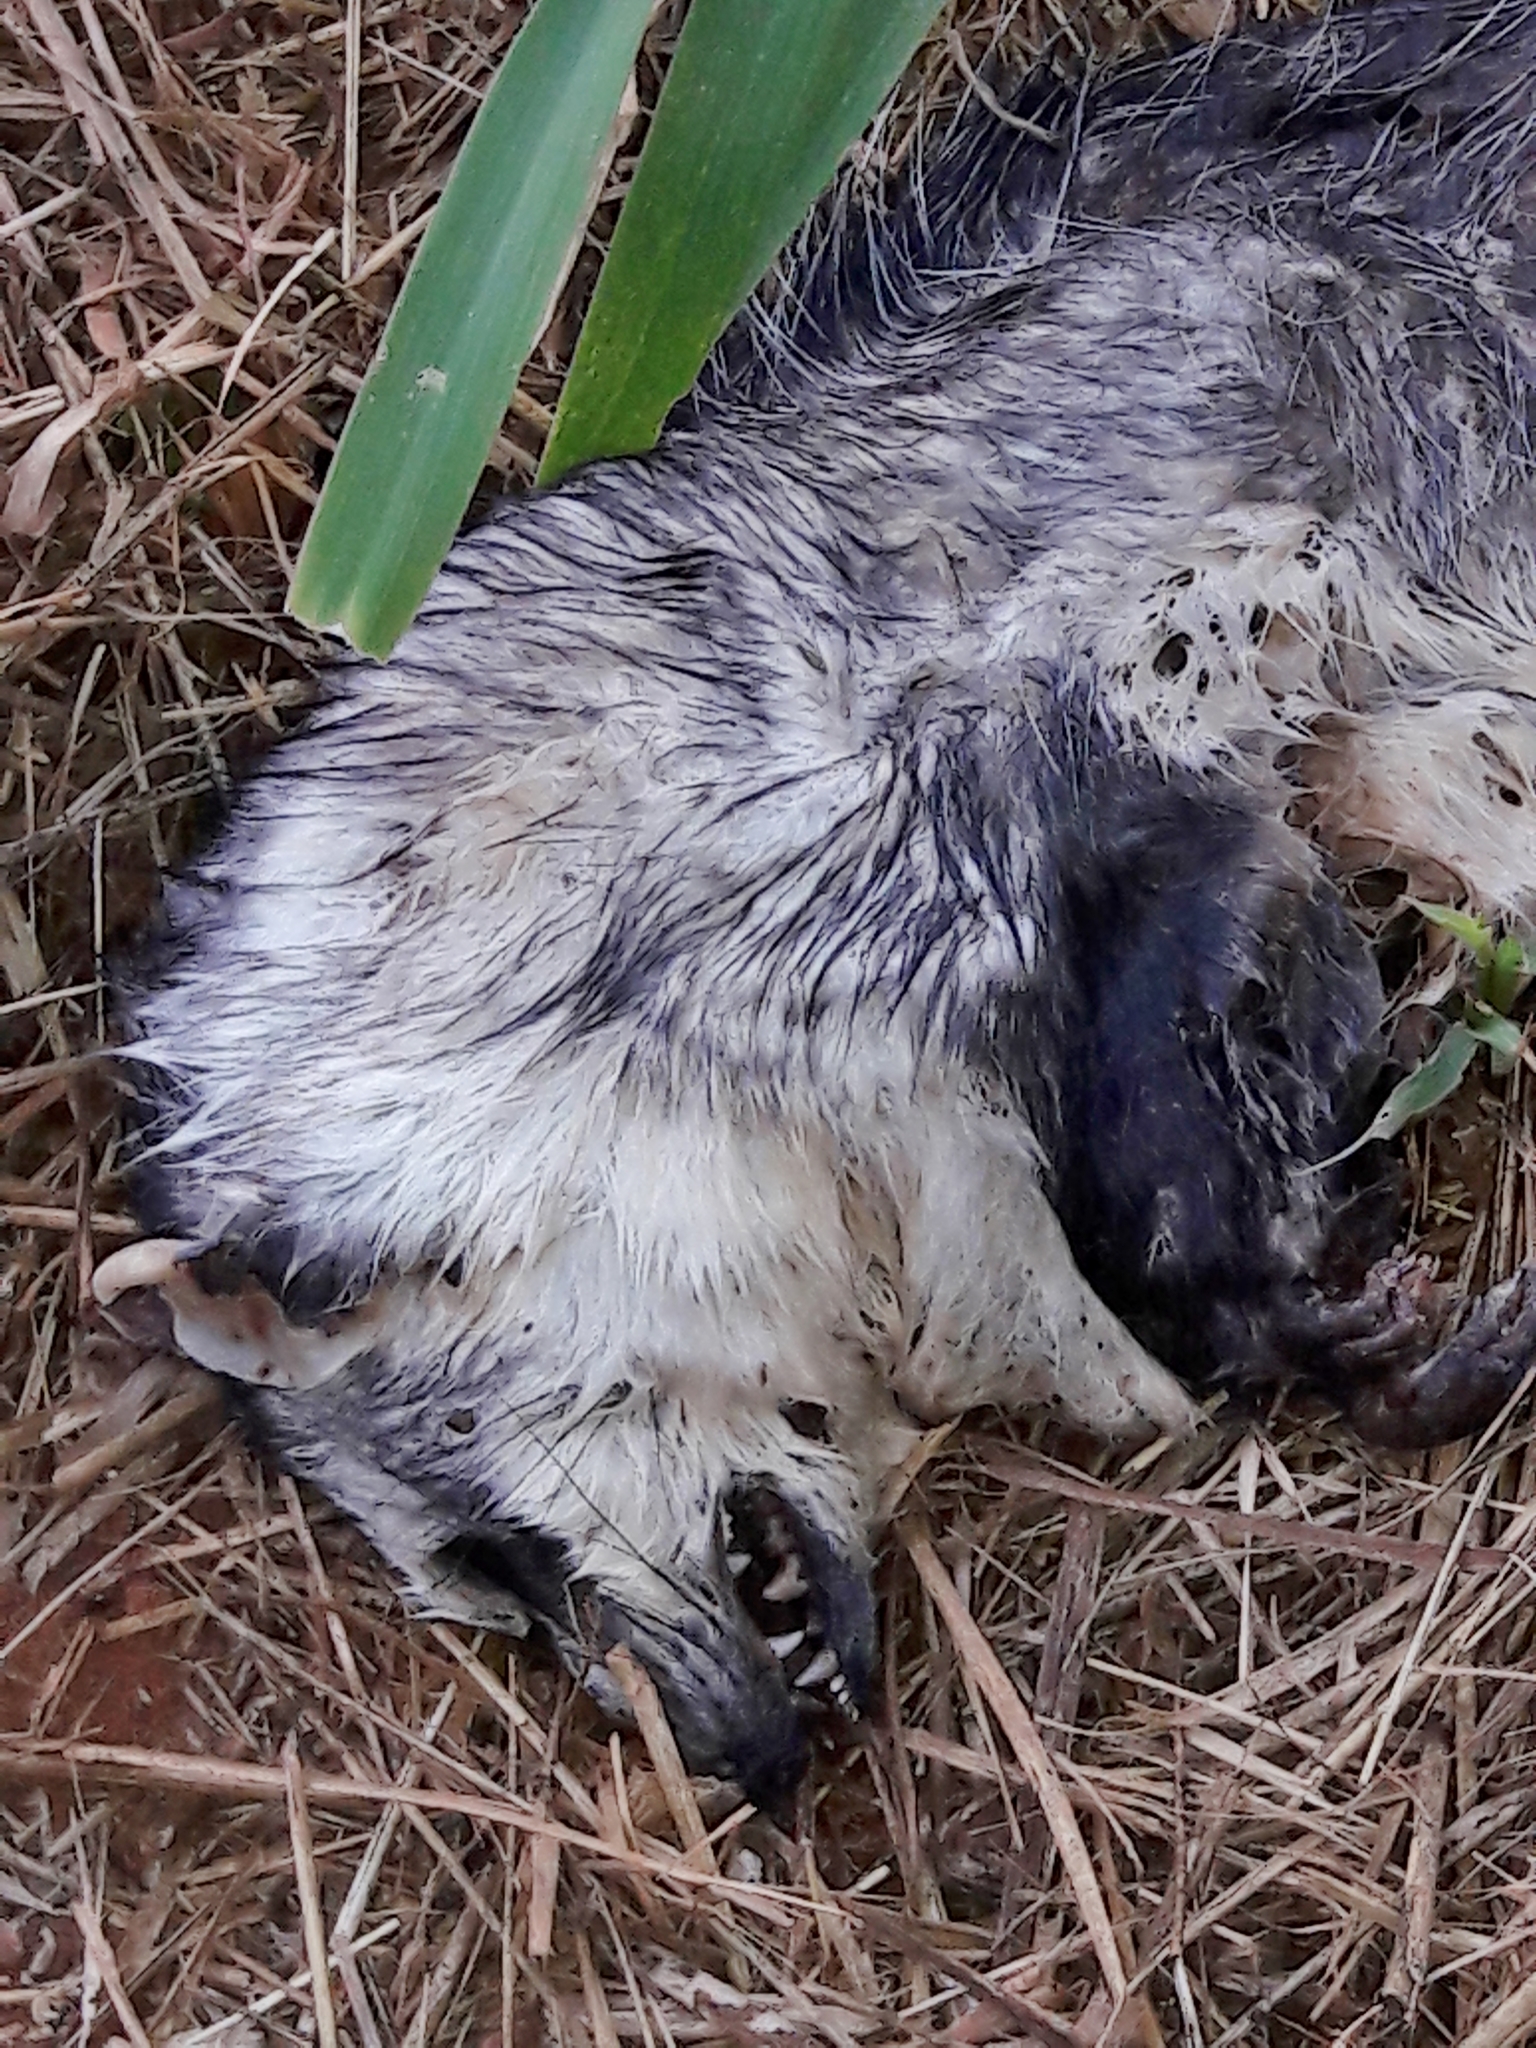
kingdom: Animalia
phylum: Chordata
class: Mammalia
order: Didelphimorphia
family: Didelphidae
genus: Didelphis
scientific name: Didelphis albiventris
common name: White-eared opossum
